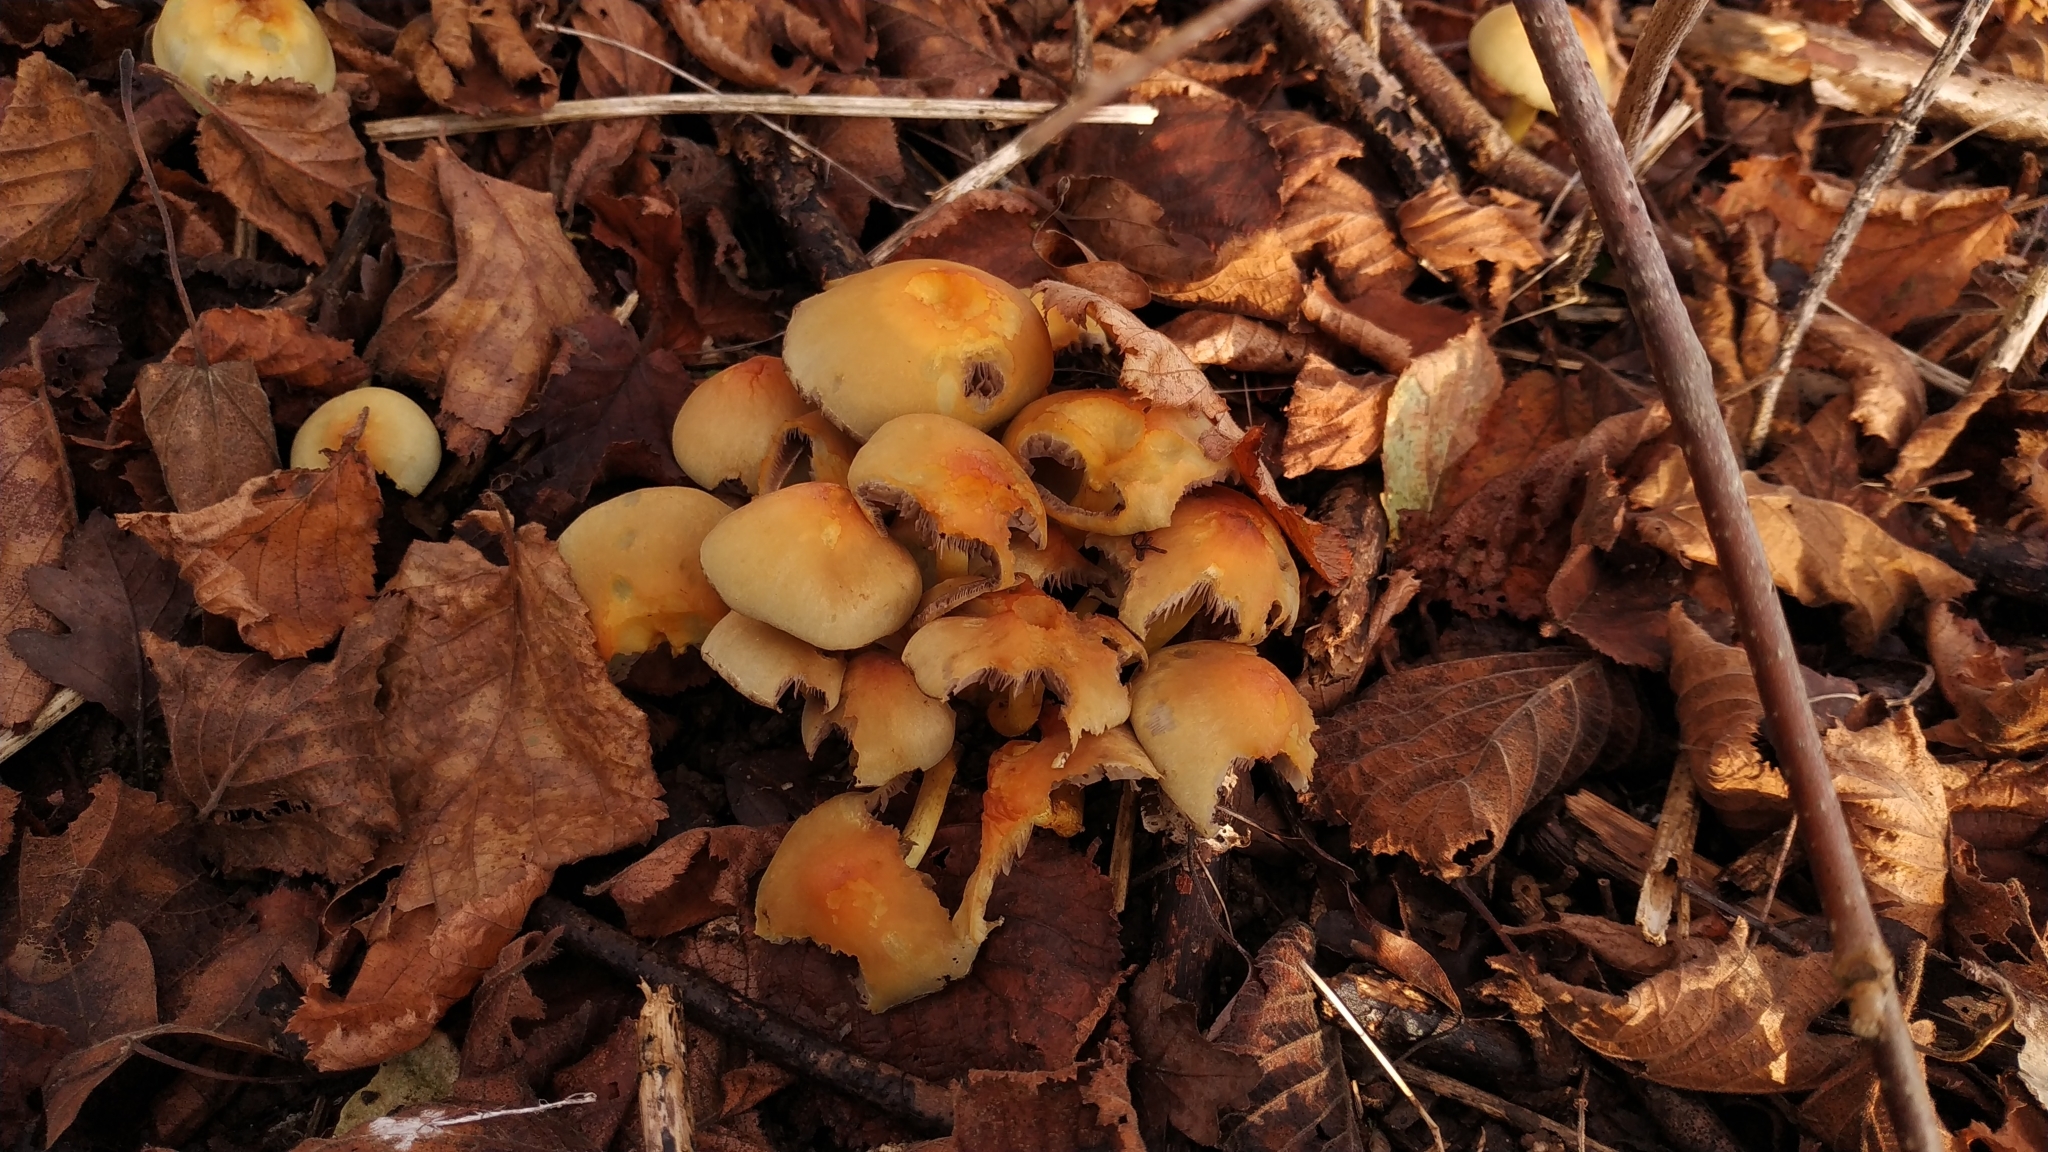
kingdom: Fungi
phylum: Basidiomycota
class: Agaricomycetes
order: Agaricales
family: Strophariaceae
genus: Hypholoma
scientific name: Hypholoma fasciculare
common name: Sulphur tuft
